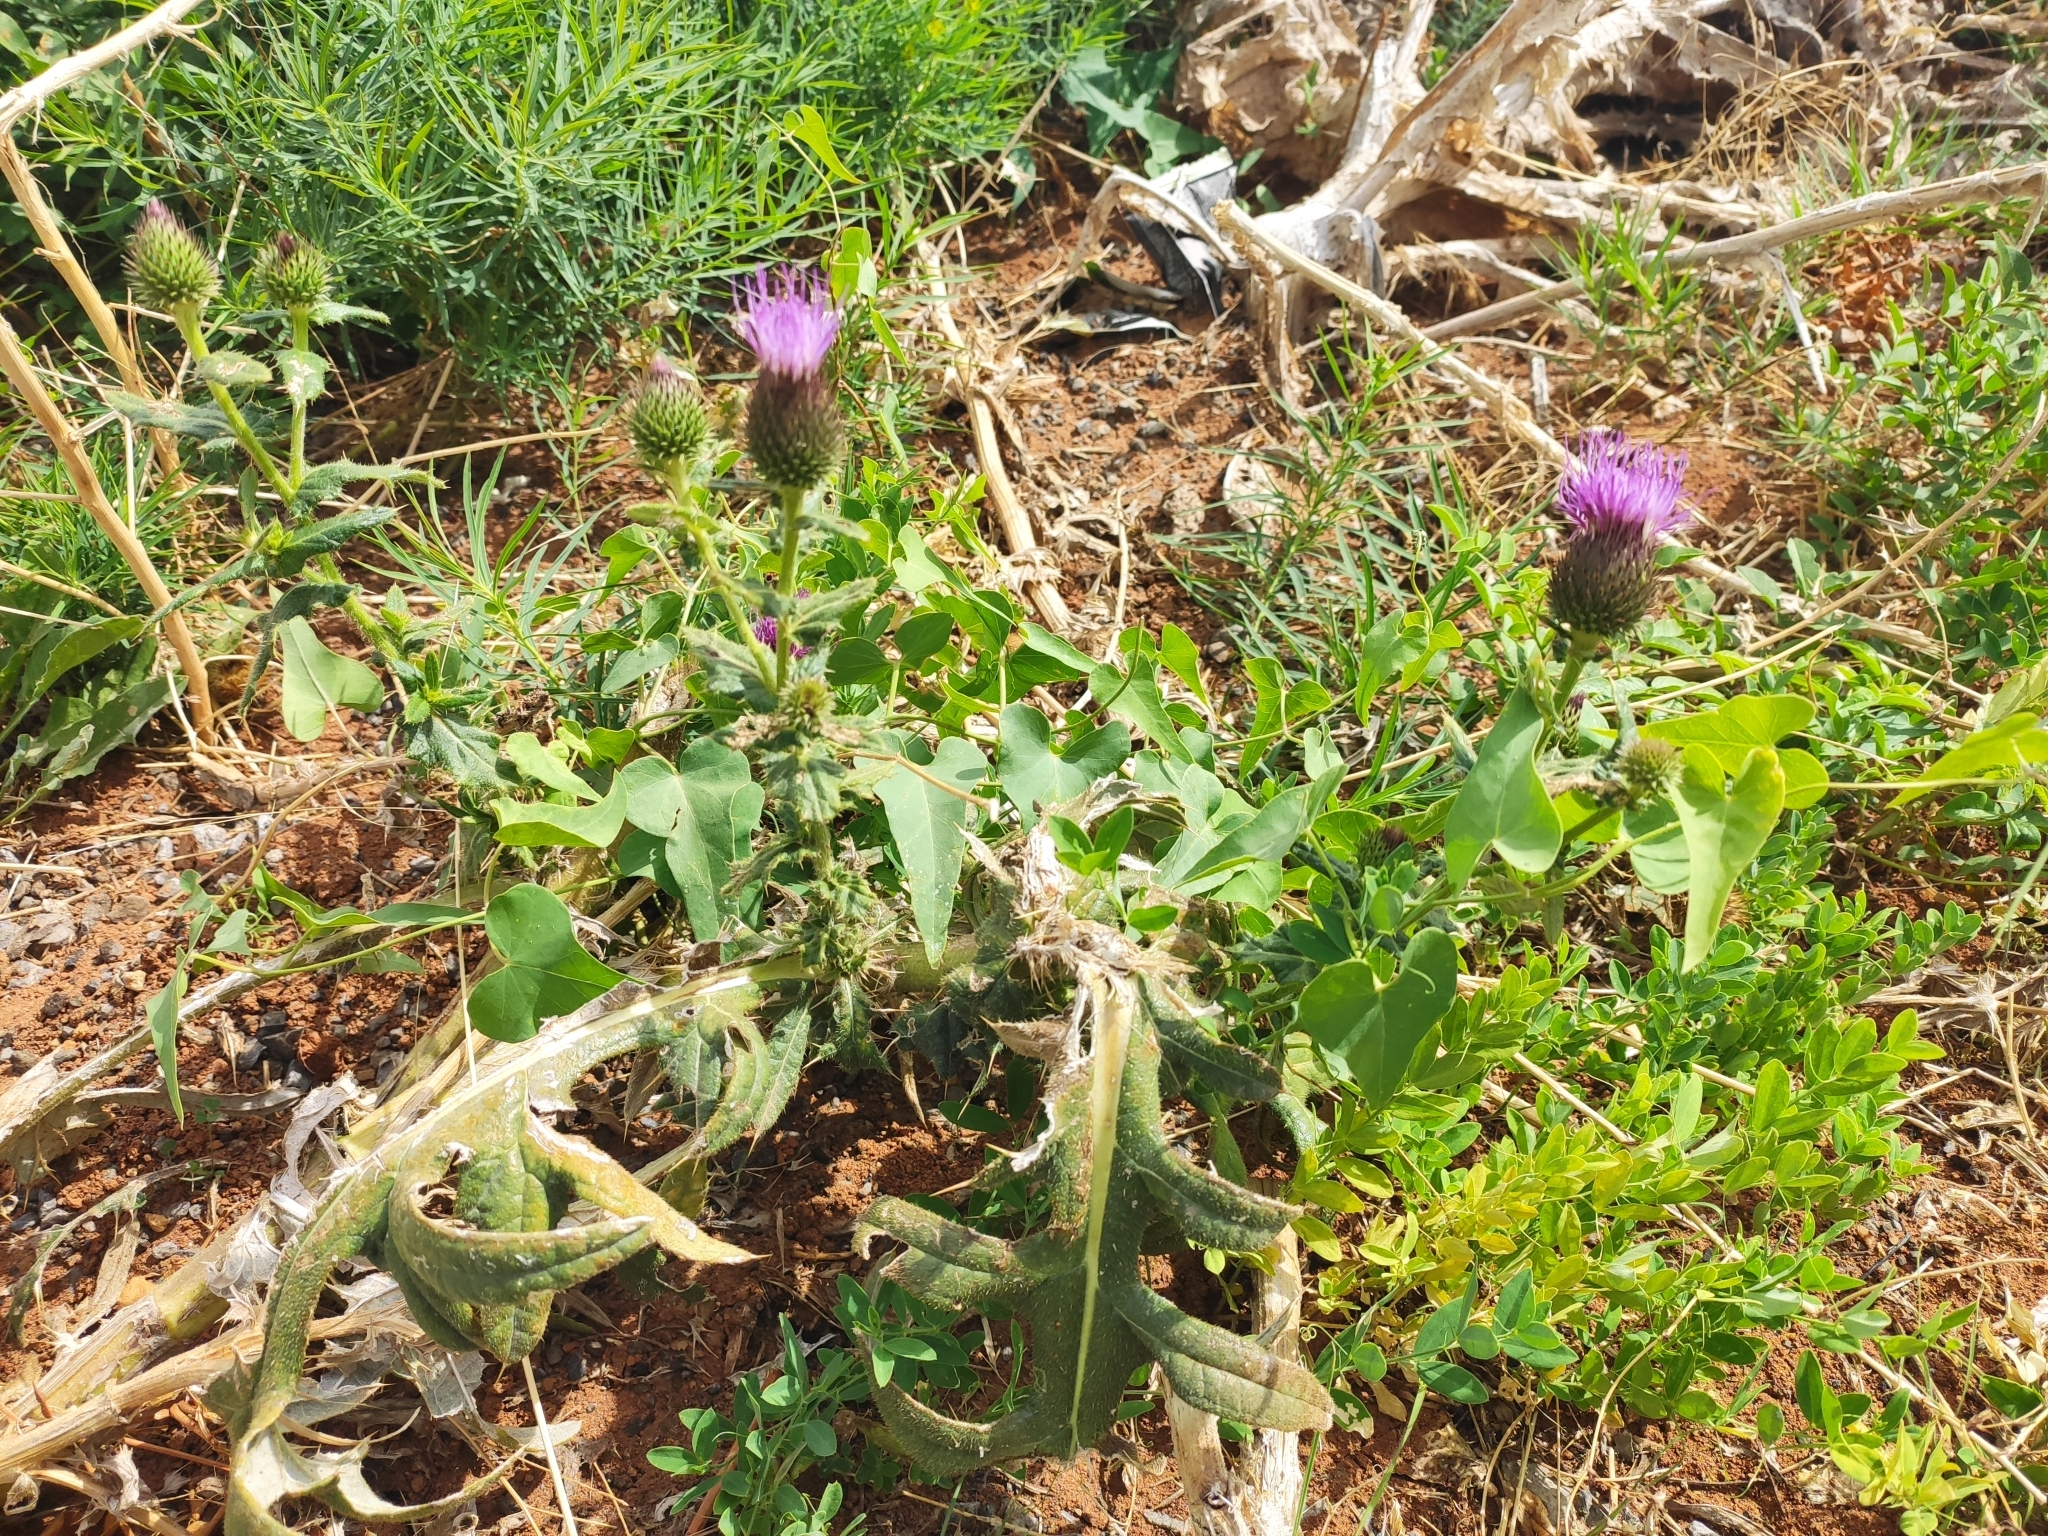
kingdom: Plantae
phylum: Tracheophyta
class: Magnoliopsida
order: Asterales
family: Asteraceae
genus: Cirsium
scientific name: Cirsium serrulatum
